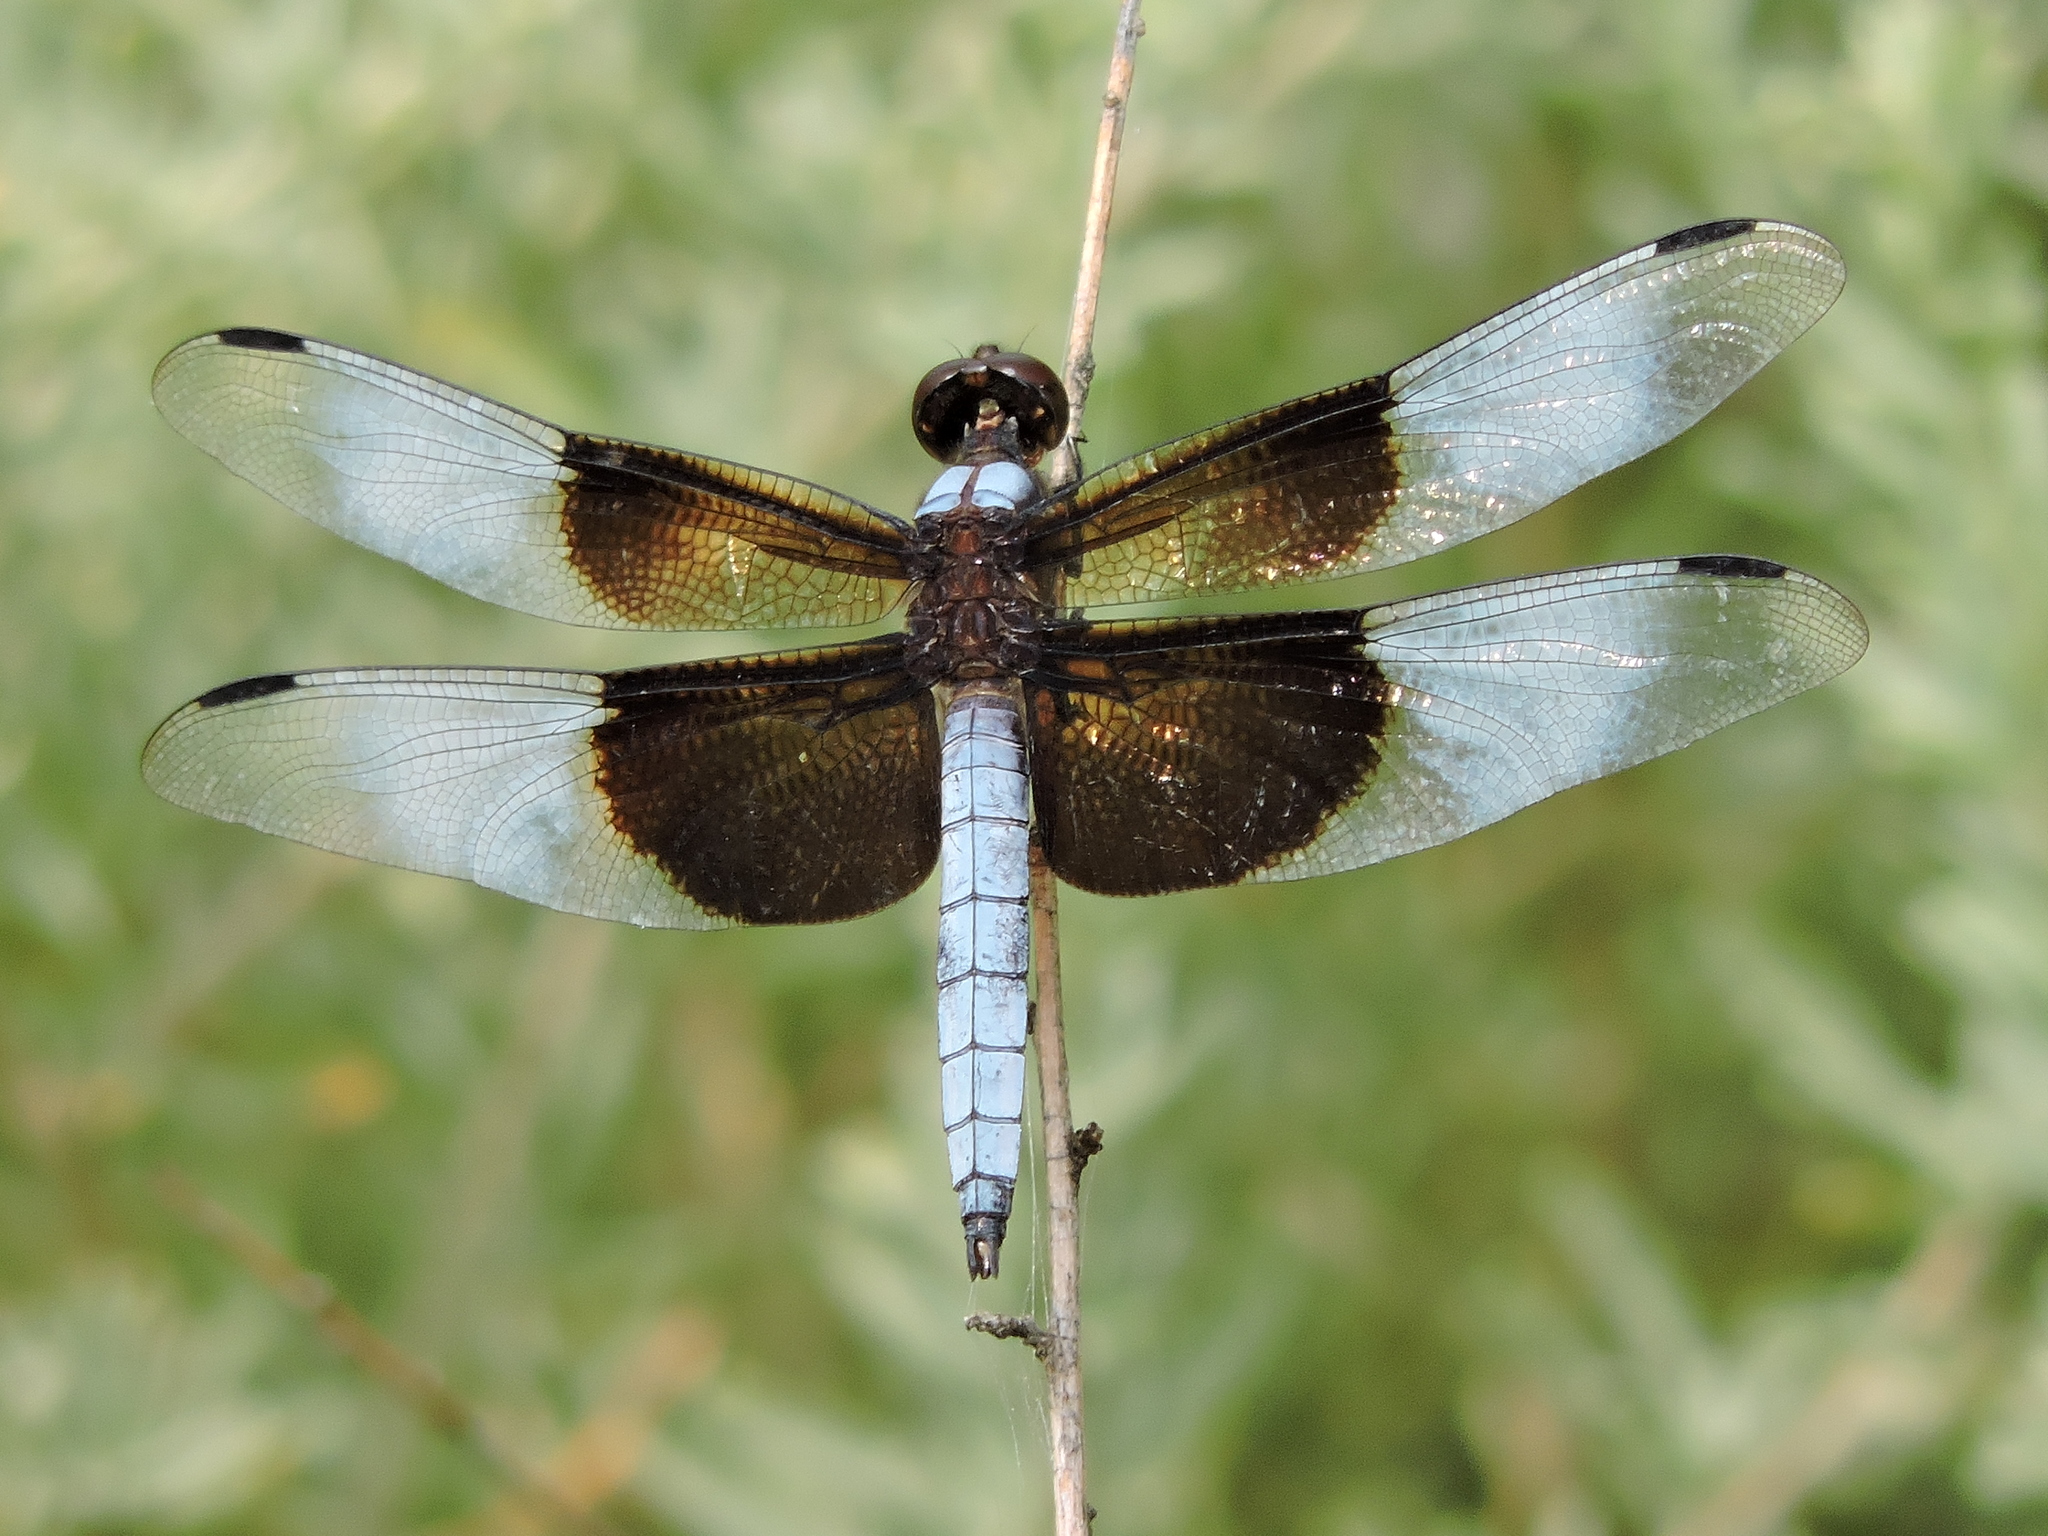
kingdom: Animalia
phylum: Arthropoda
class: Insecta
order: Odonata
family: Libellulidae
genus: Libellula
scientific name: Libellula luctuosa
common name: Widow skimmer
